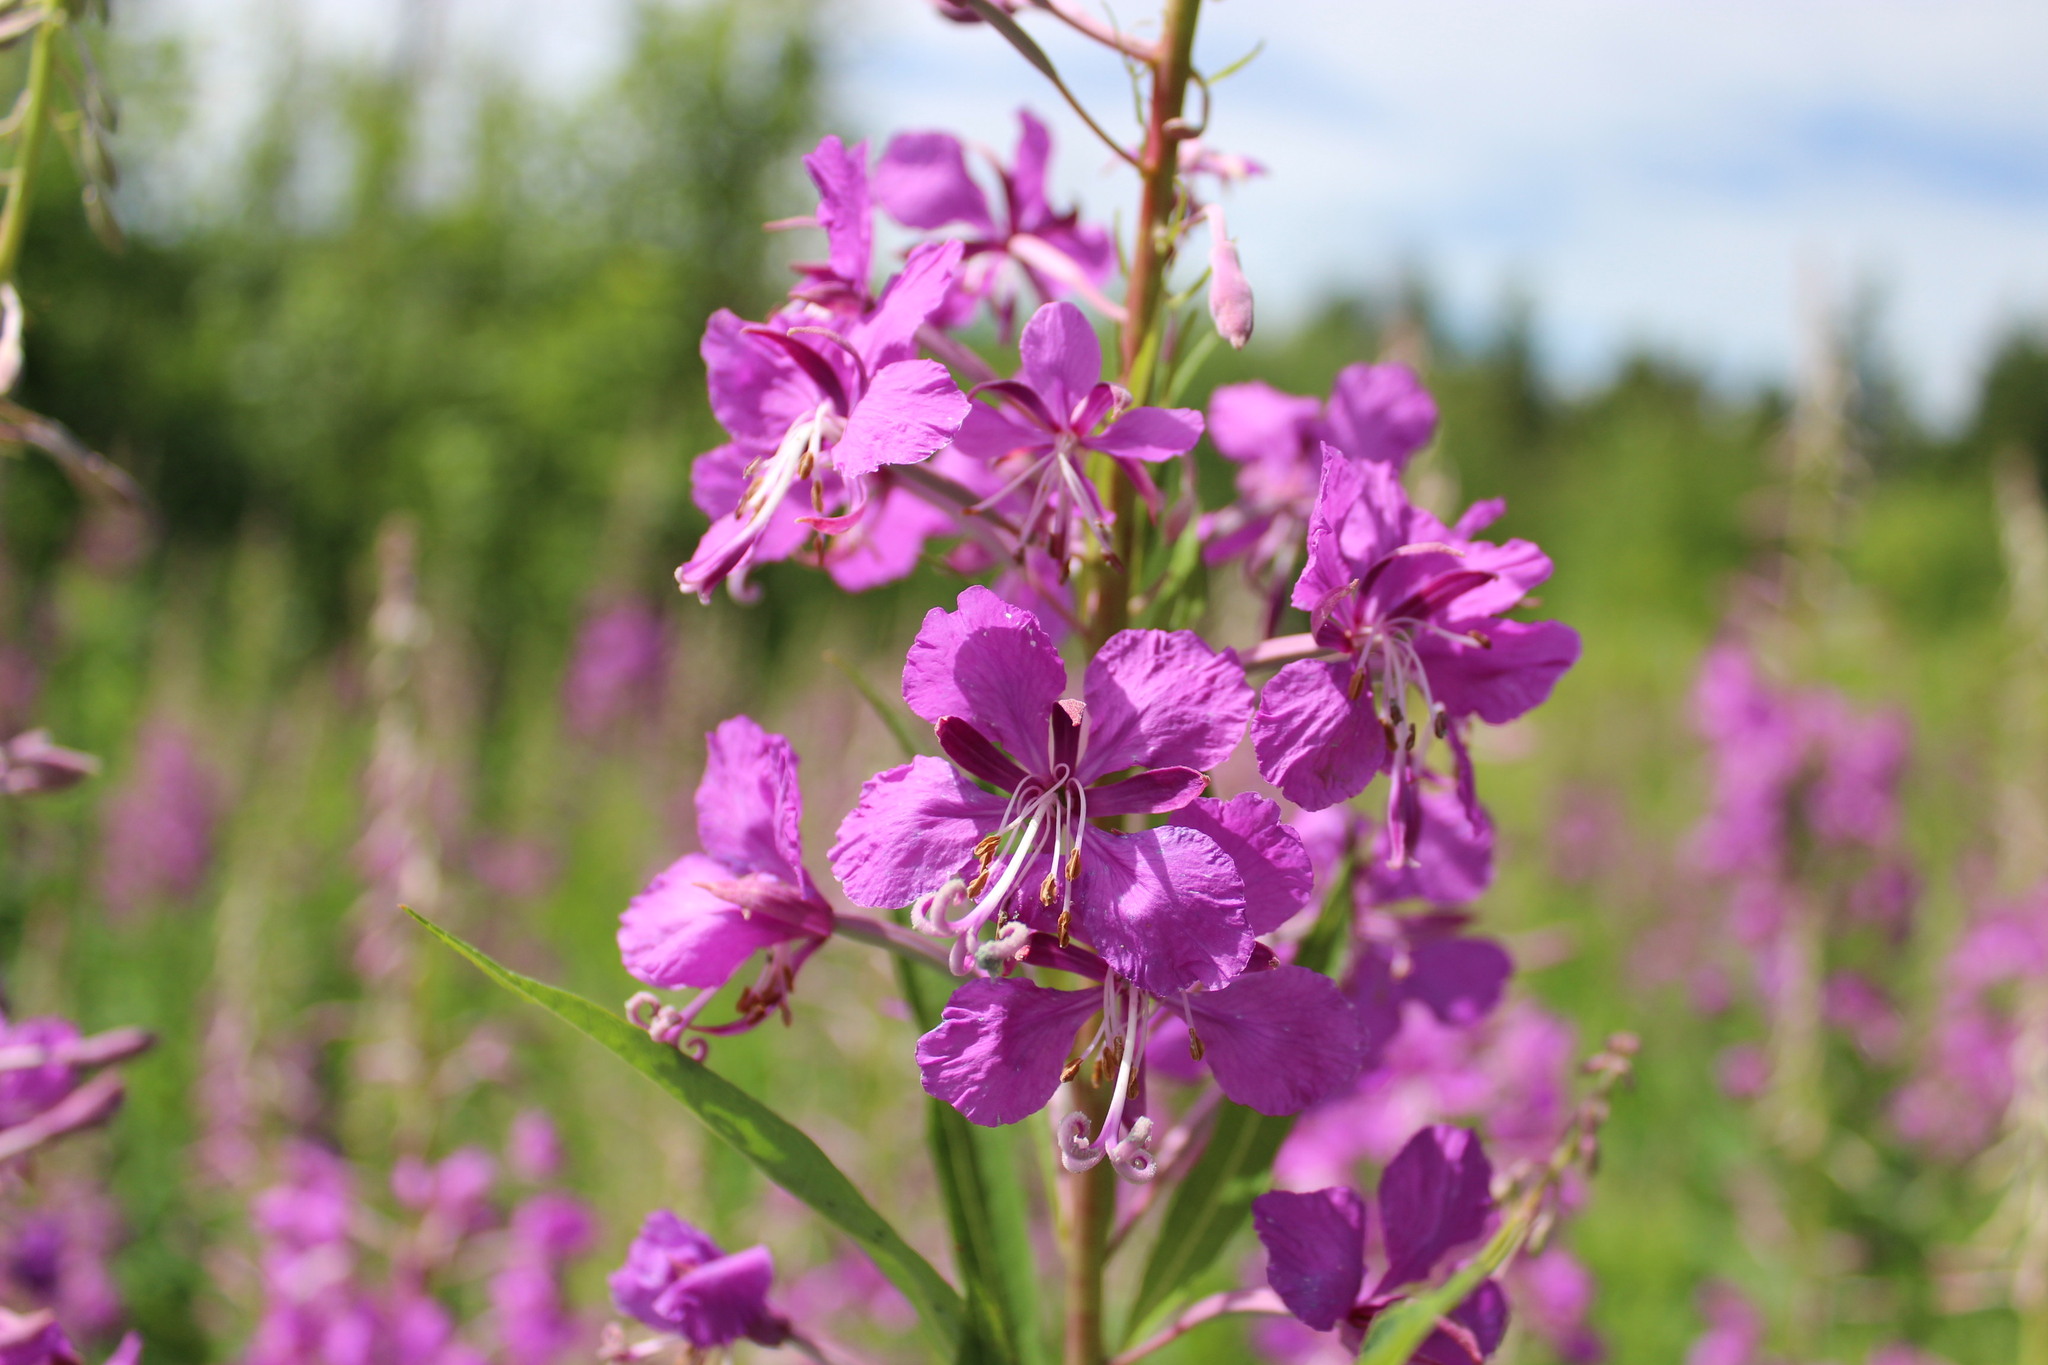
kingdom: Plantae
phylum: Tracheophyta
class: Magnoliopsida
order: Myrtales
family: Onagraceae
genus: Chamaenerion
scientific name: Chamaenerion angustifolium
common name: Fireweed
